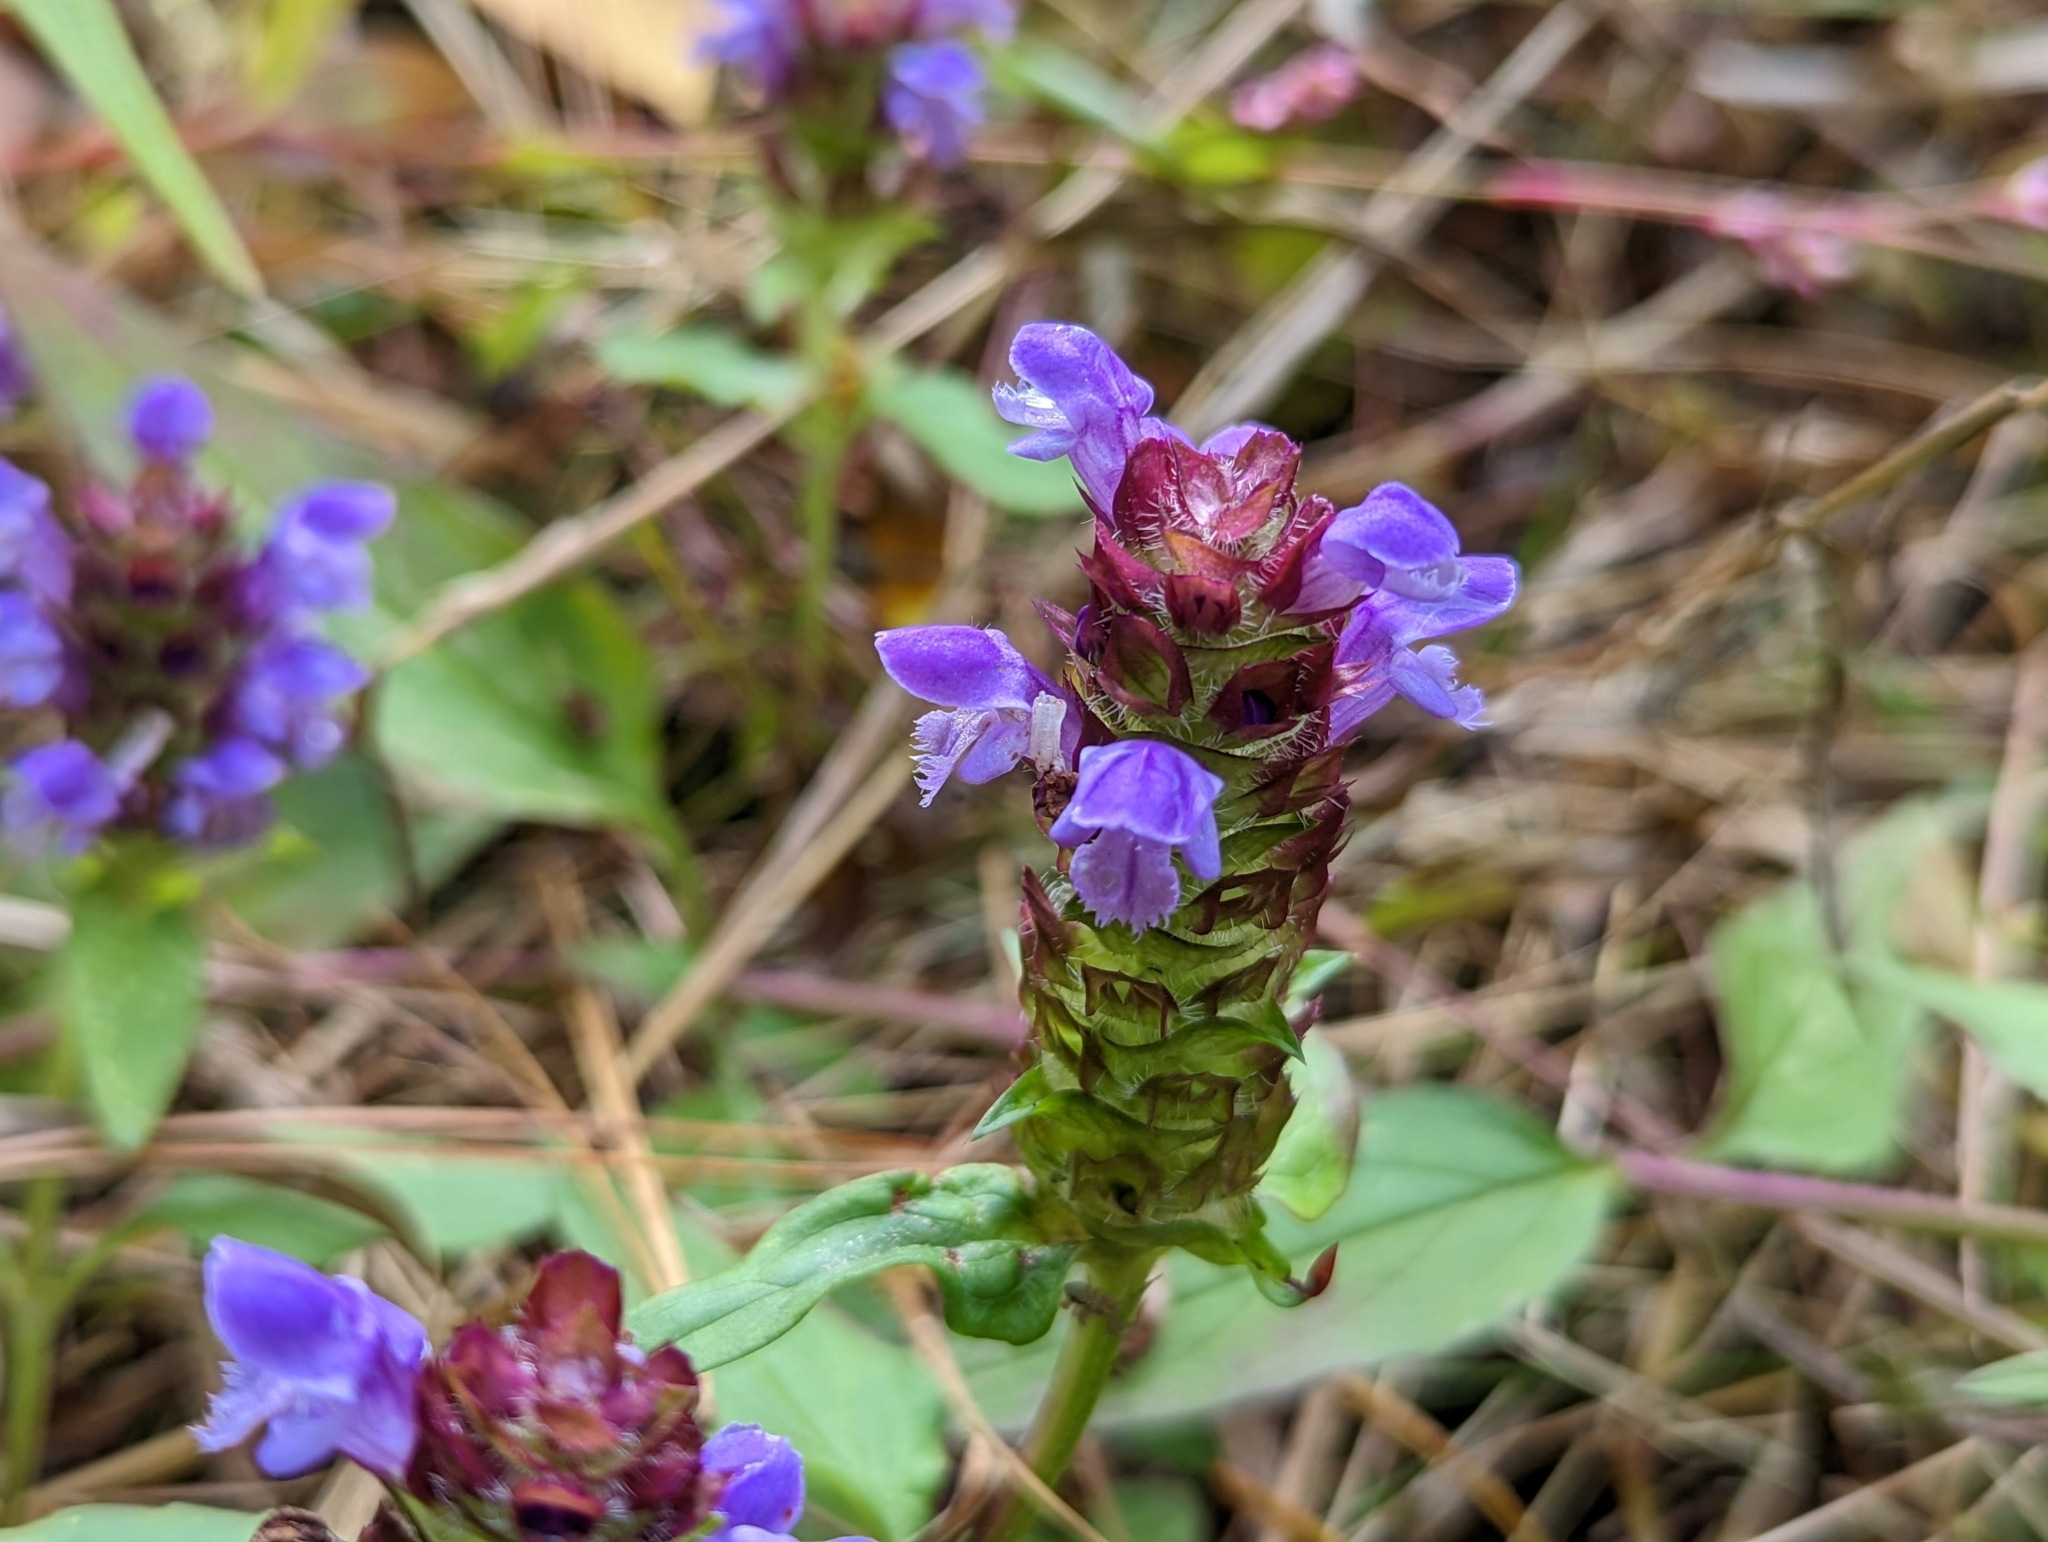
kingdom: Plantae
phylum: Tracheophyta
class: Magnoliopsida
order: Lamiales
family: Lamiaceae
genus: Prunella
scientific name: Prunella vulgaris
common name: Heal-all
